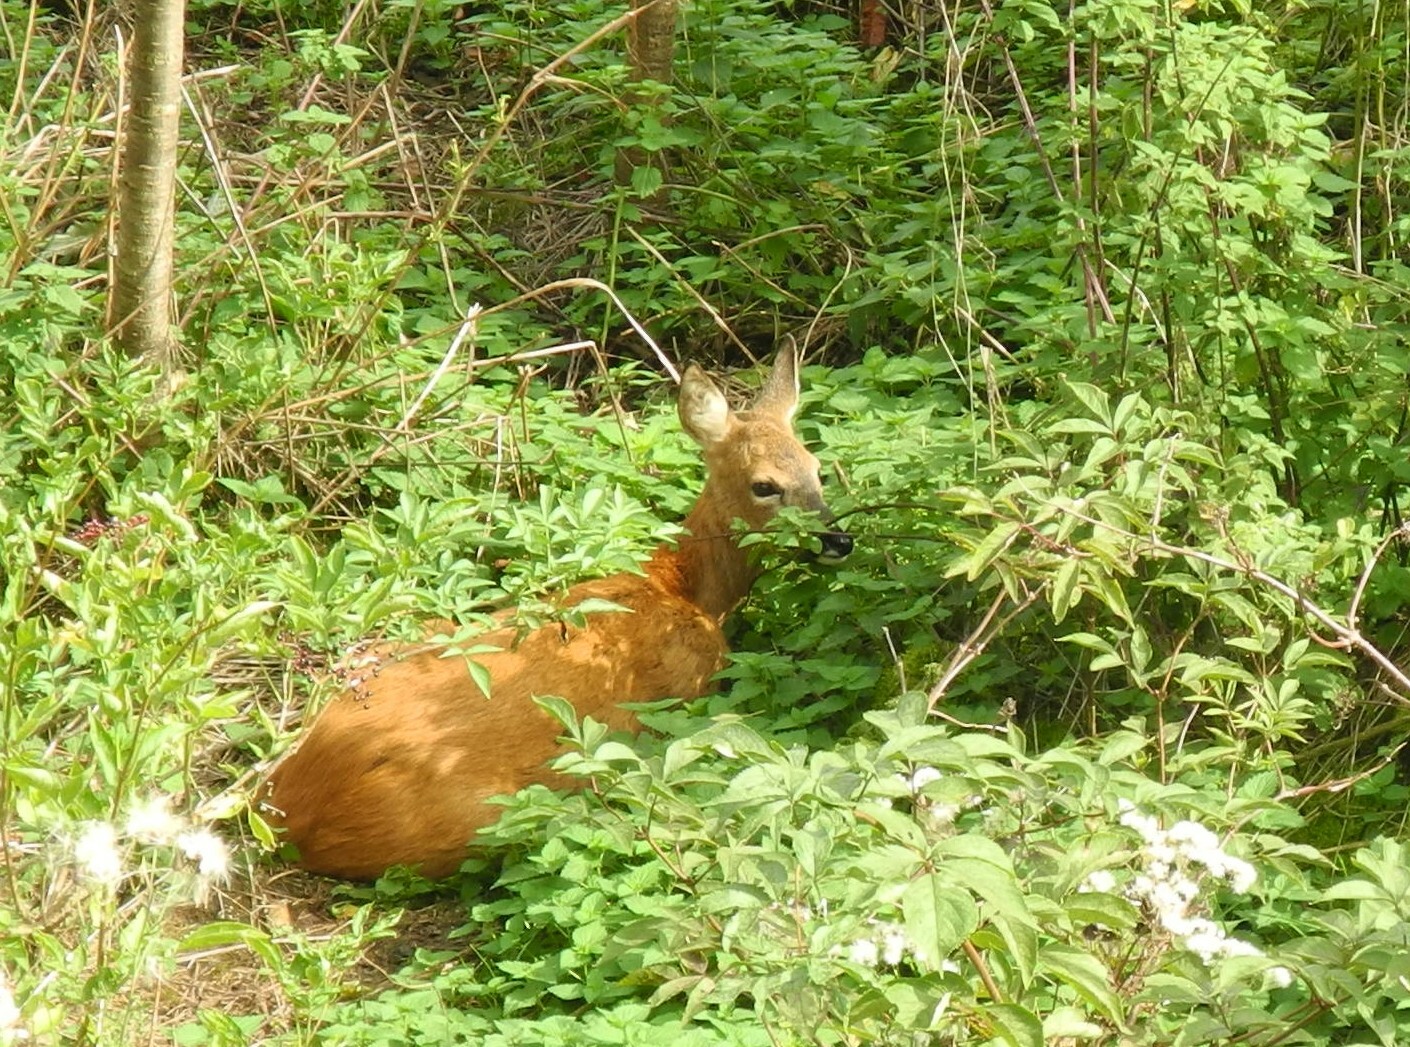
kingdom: Animalia
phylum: Chordata
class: Mammalia
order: Artiodactyla
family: Cervidae
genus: Capreolus
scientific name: Capreolus capreolus
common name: Western roe deer
